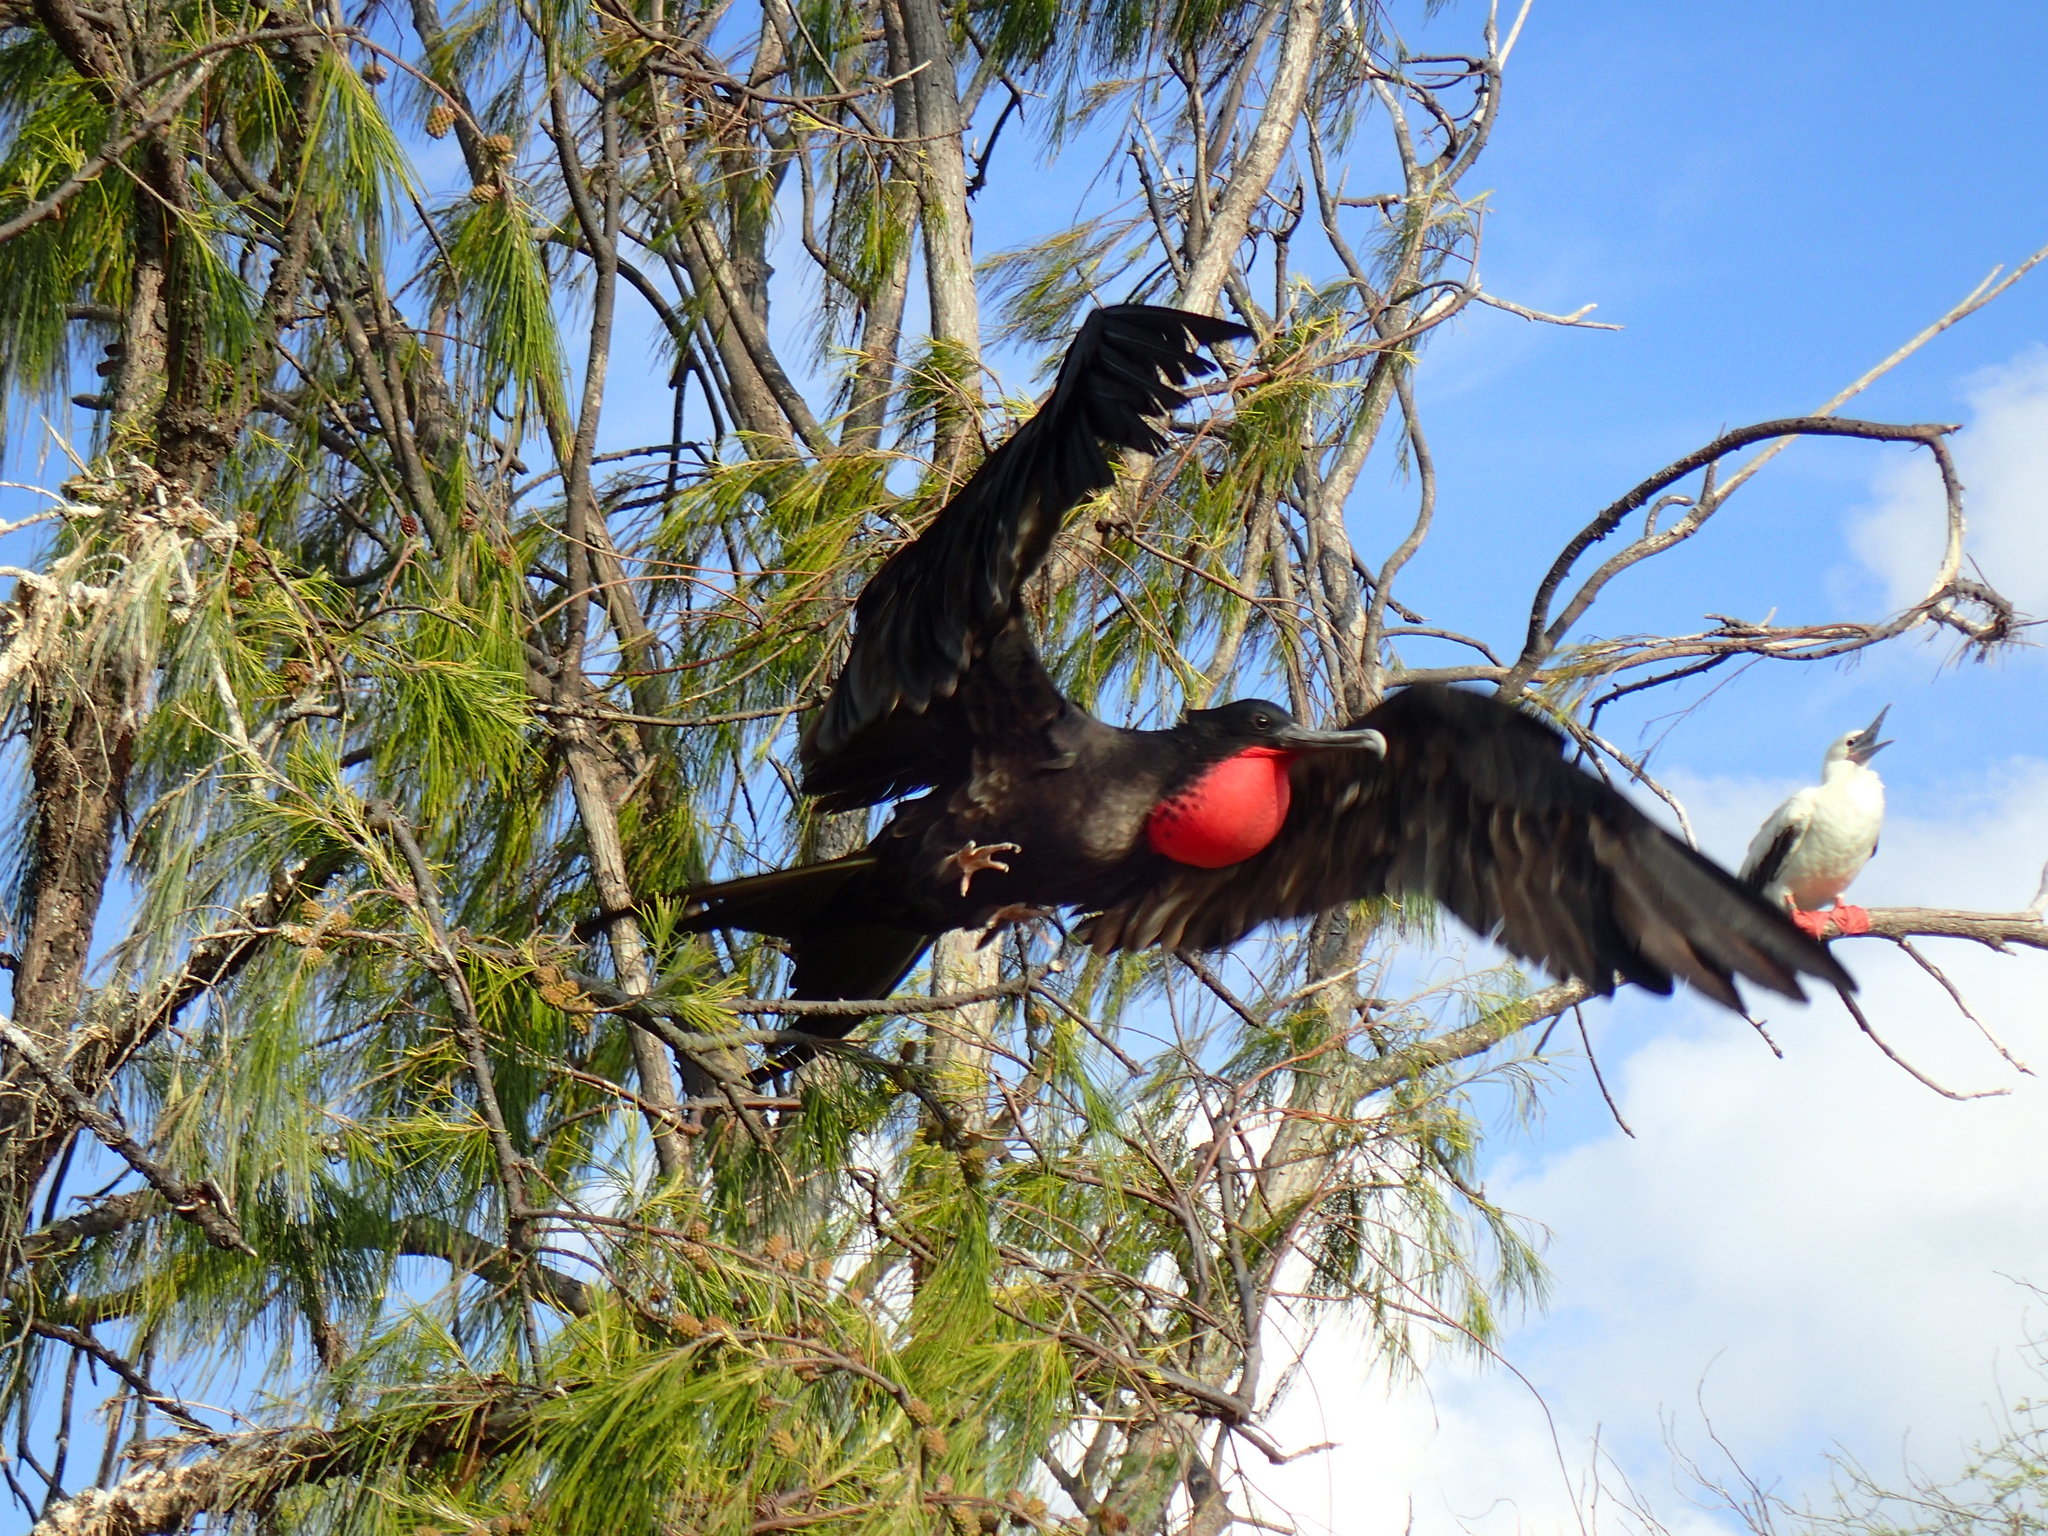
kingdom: Animalia
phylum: Chordata
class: Aves
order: Suliformes
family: Fregatidae
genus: Fregata
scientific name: Fregata minor
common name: Great frigatebird
